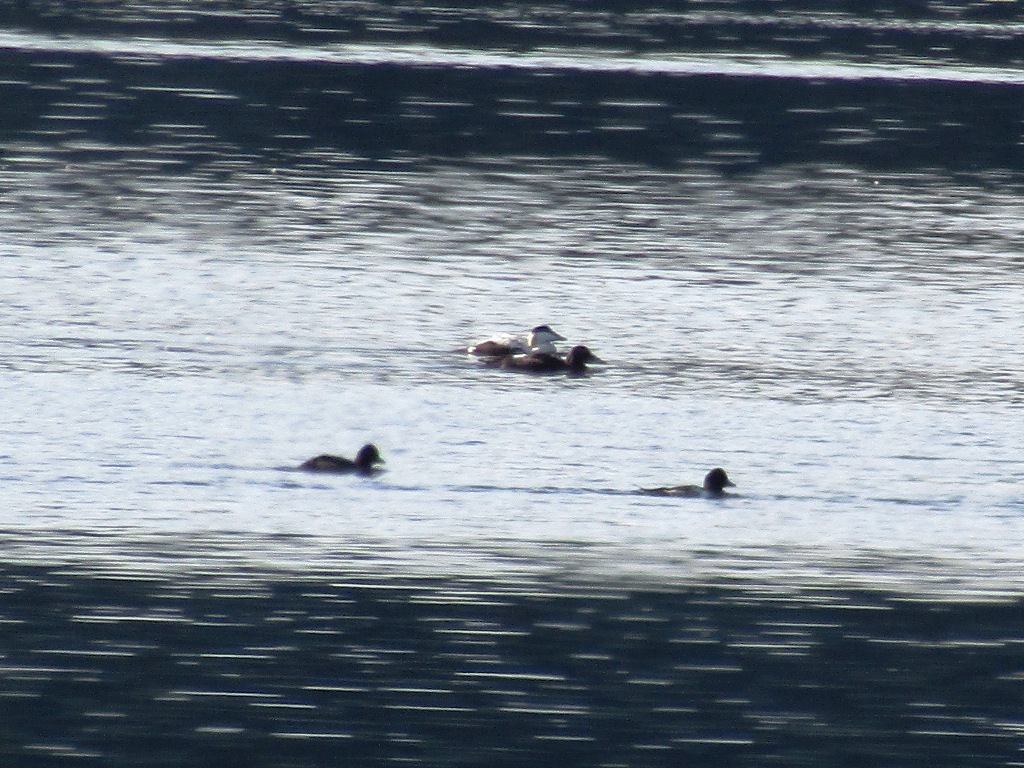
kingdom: Animalia
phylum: Chordata
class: Aves
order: Anseriformes
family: Anatidae
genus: Somateria
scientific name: Somateria mollissima
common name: Common eider
